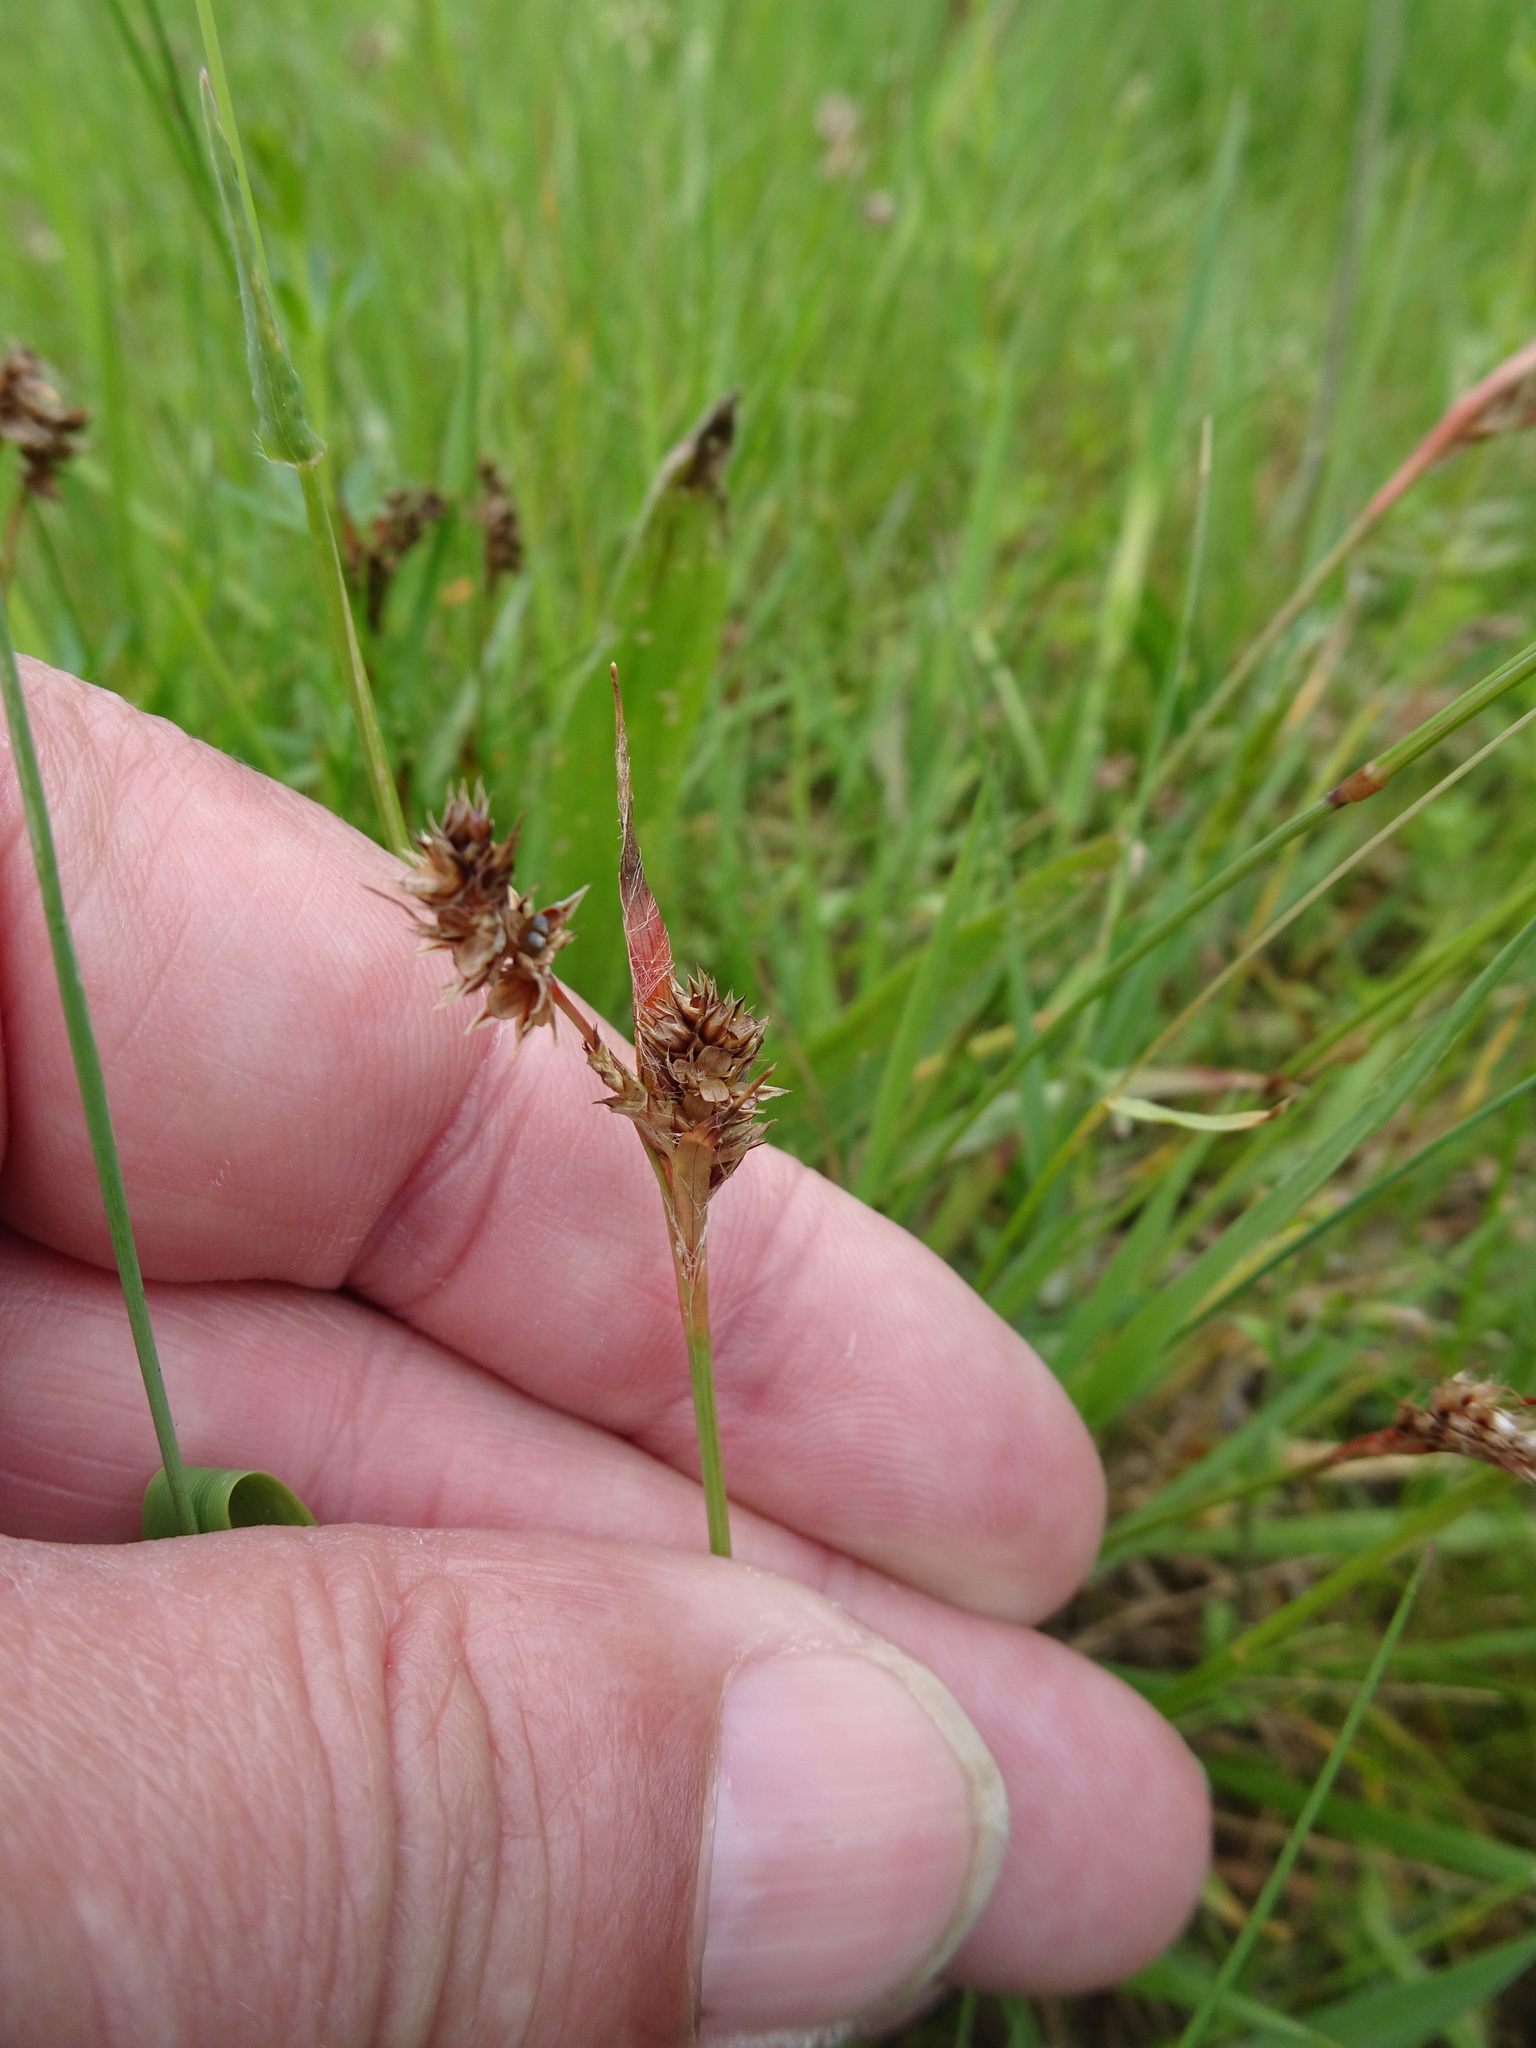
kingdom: Plantae
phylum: Tracheophyta
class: Liliopsida
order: Poales
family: Juncaceae
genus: Luzula
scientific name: Luzula campestris
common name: Field wood-rush
